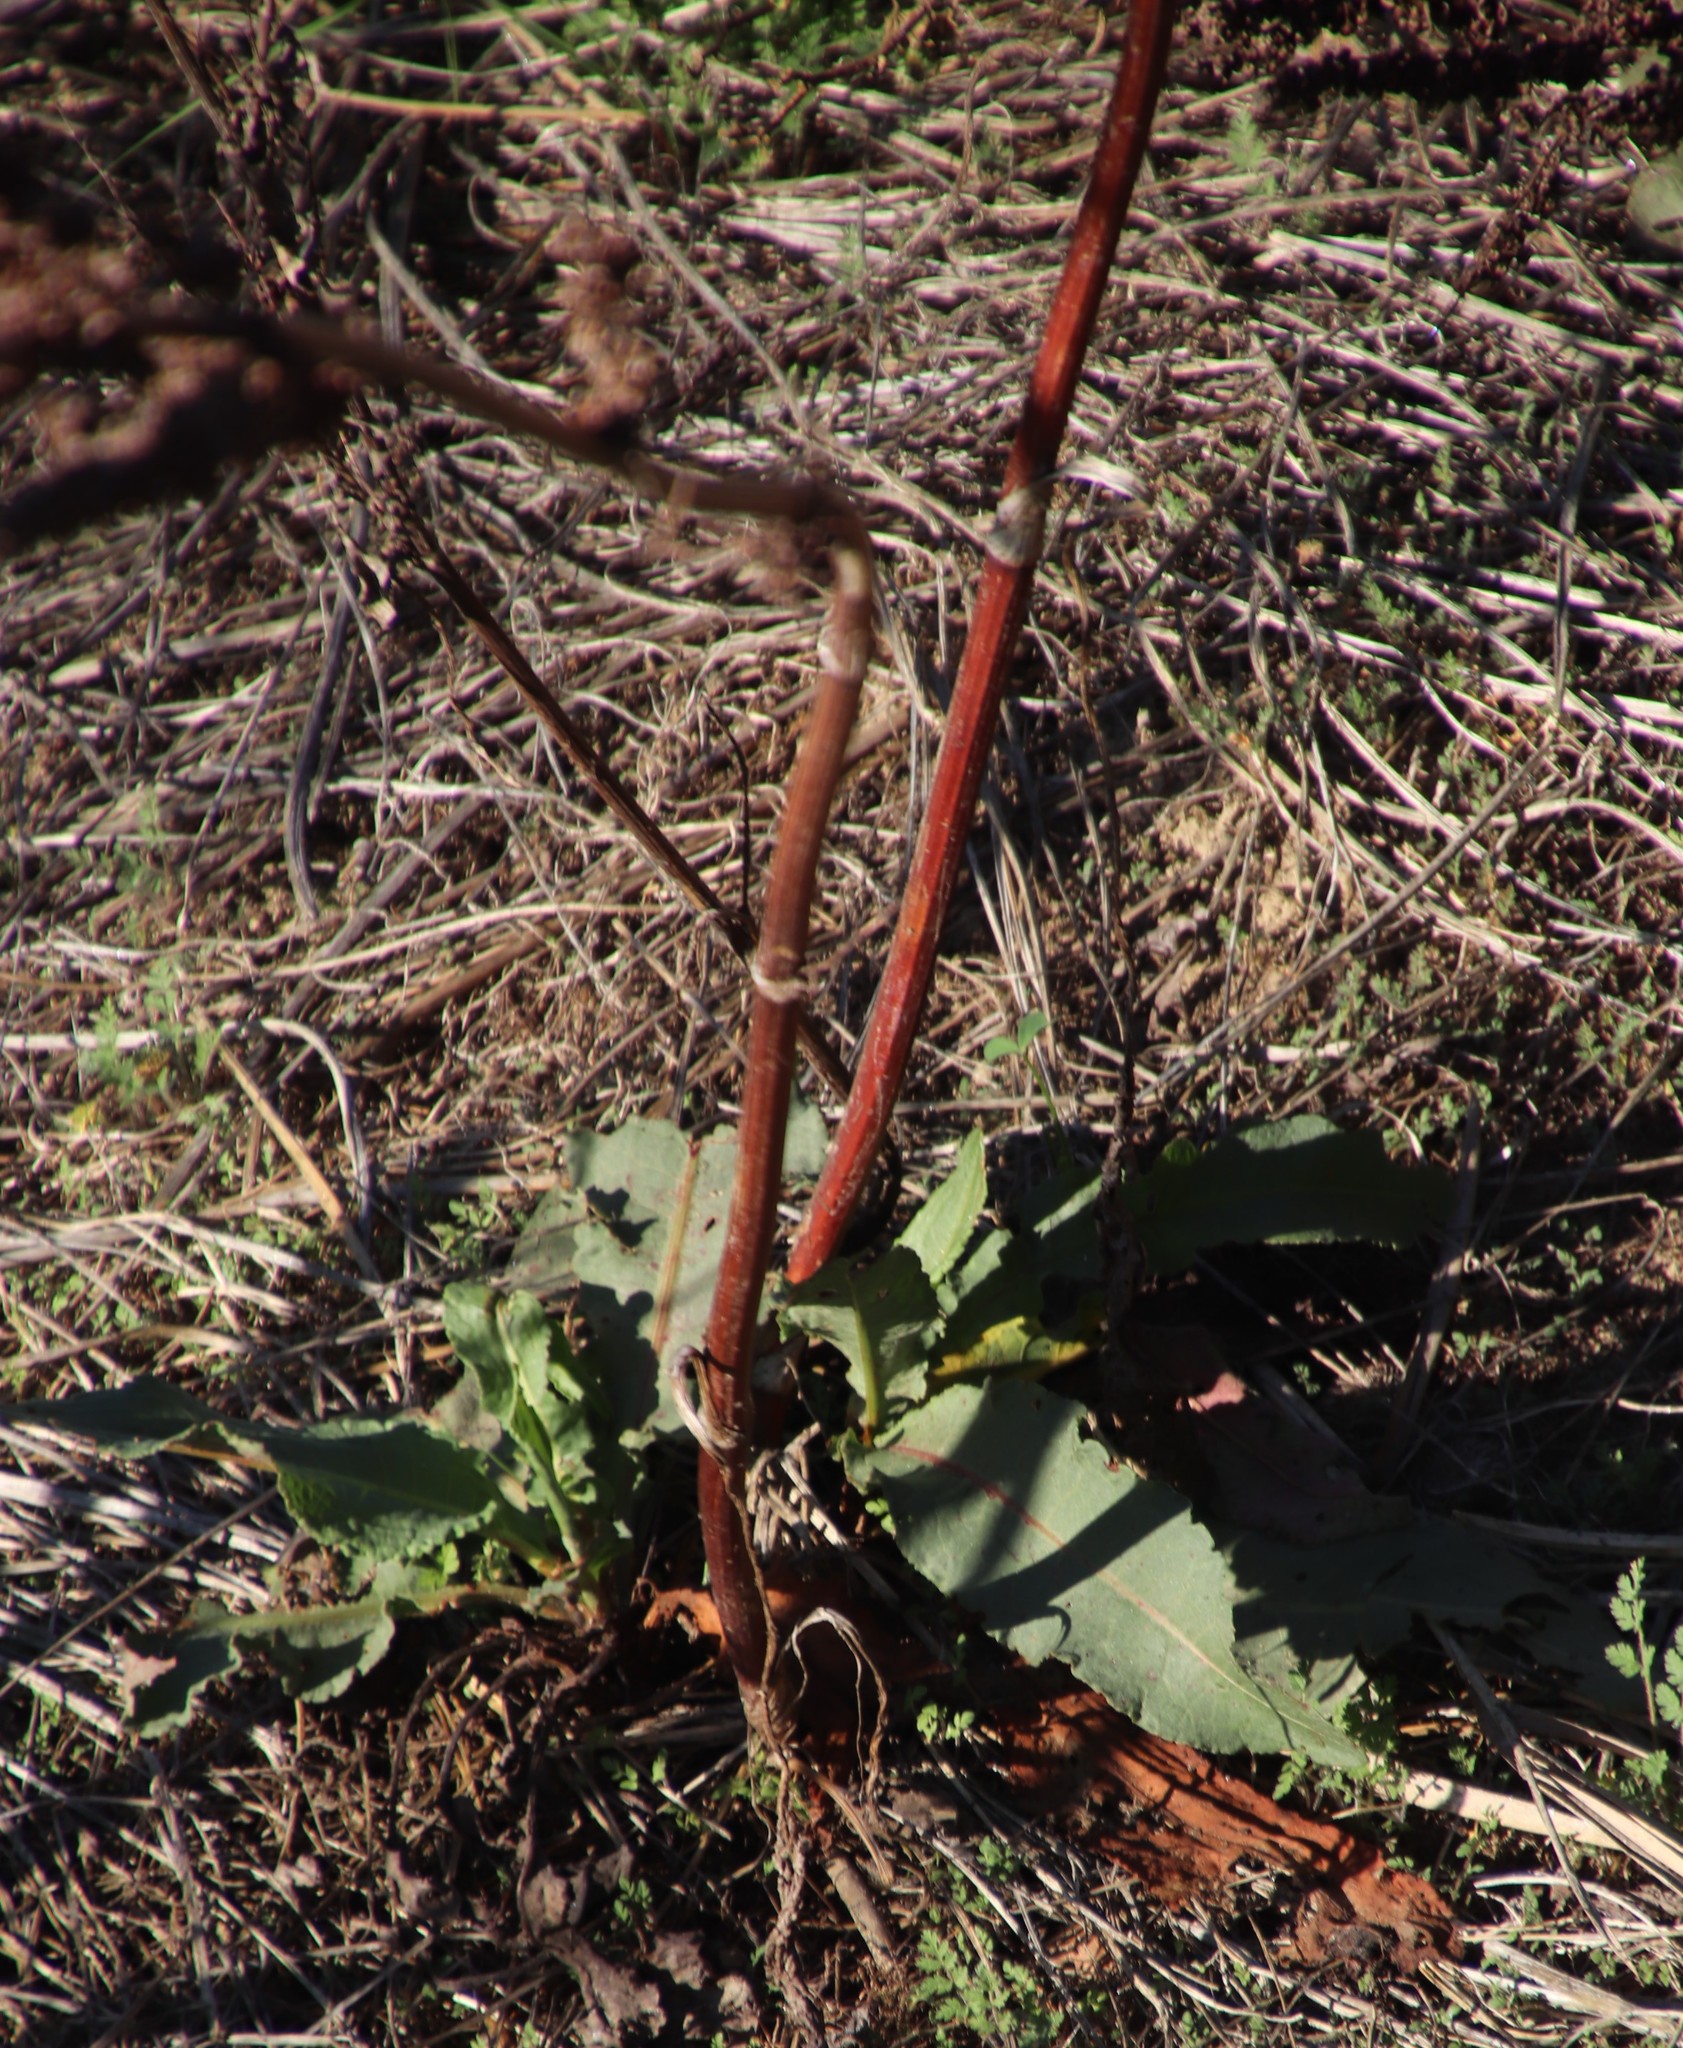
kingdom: Plantae
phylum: Tracheophyta
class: Magnoliopsida
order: Caryophyllales
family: Polygonaceae
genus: Rumex
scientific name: Rumex cordatus
